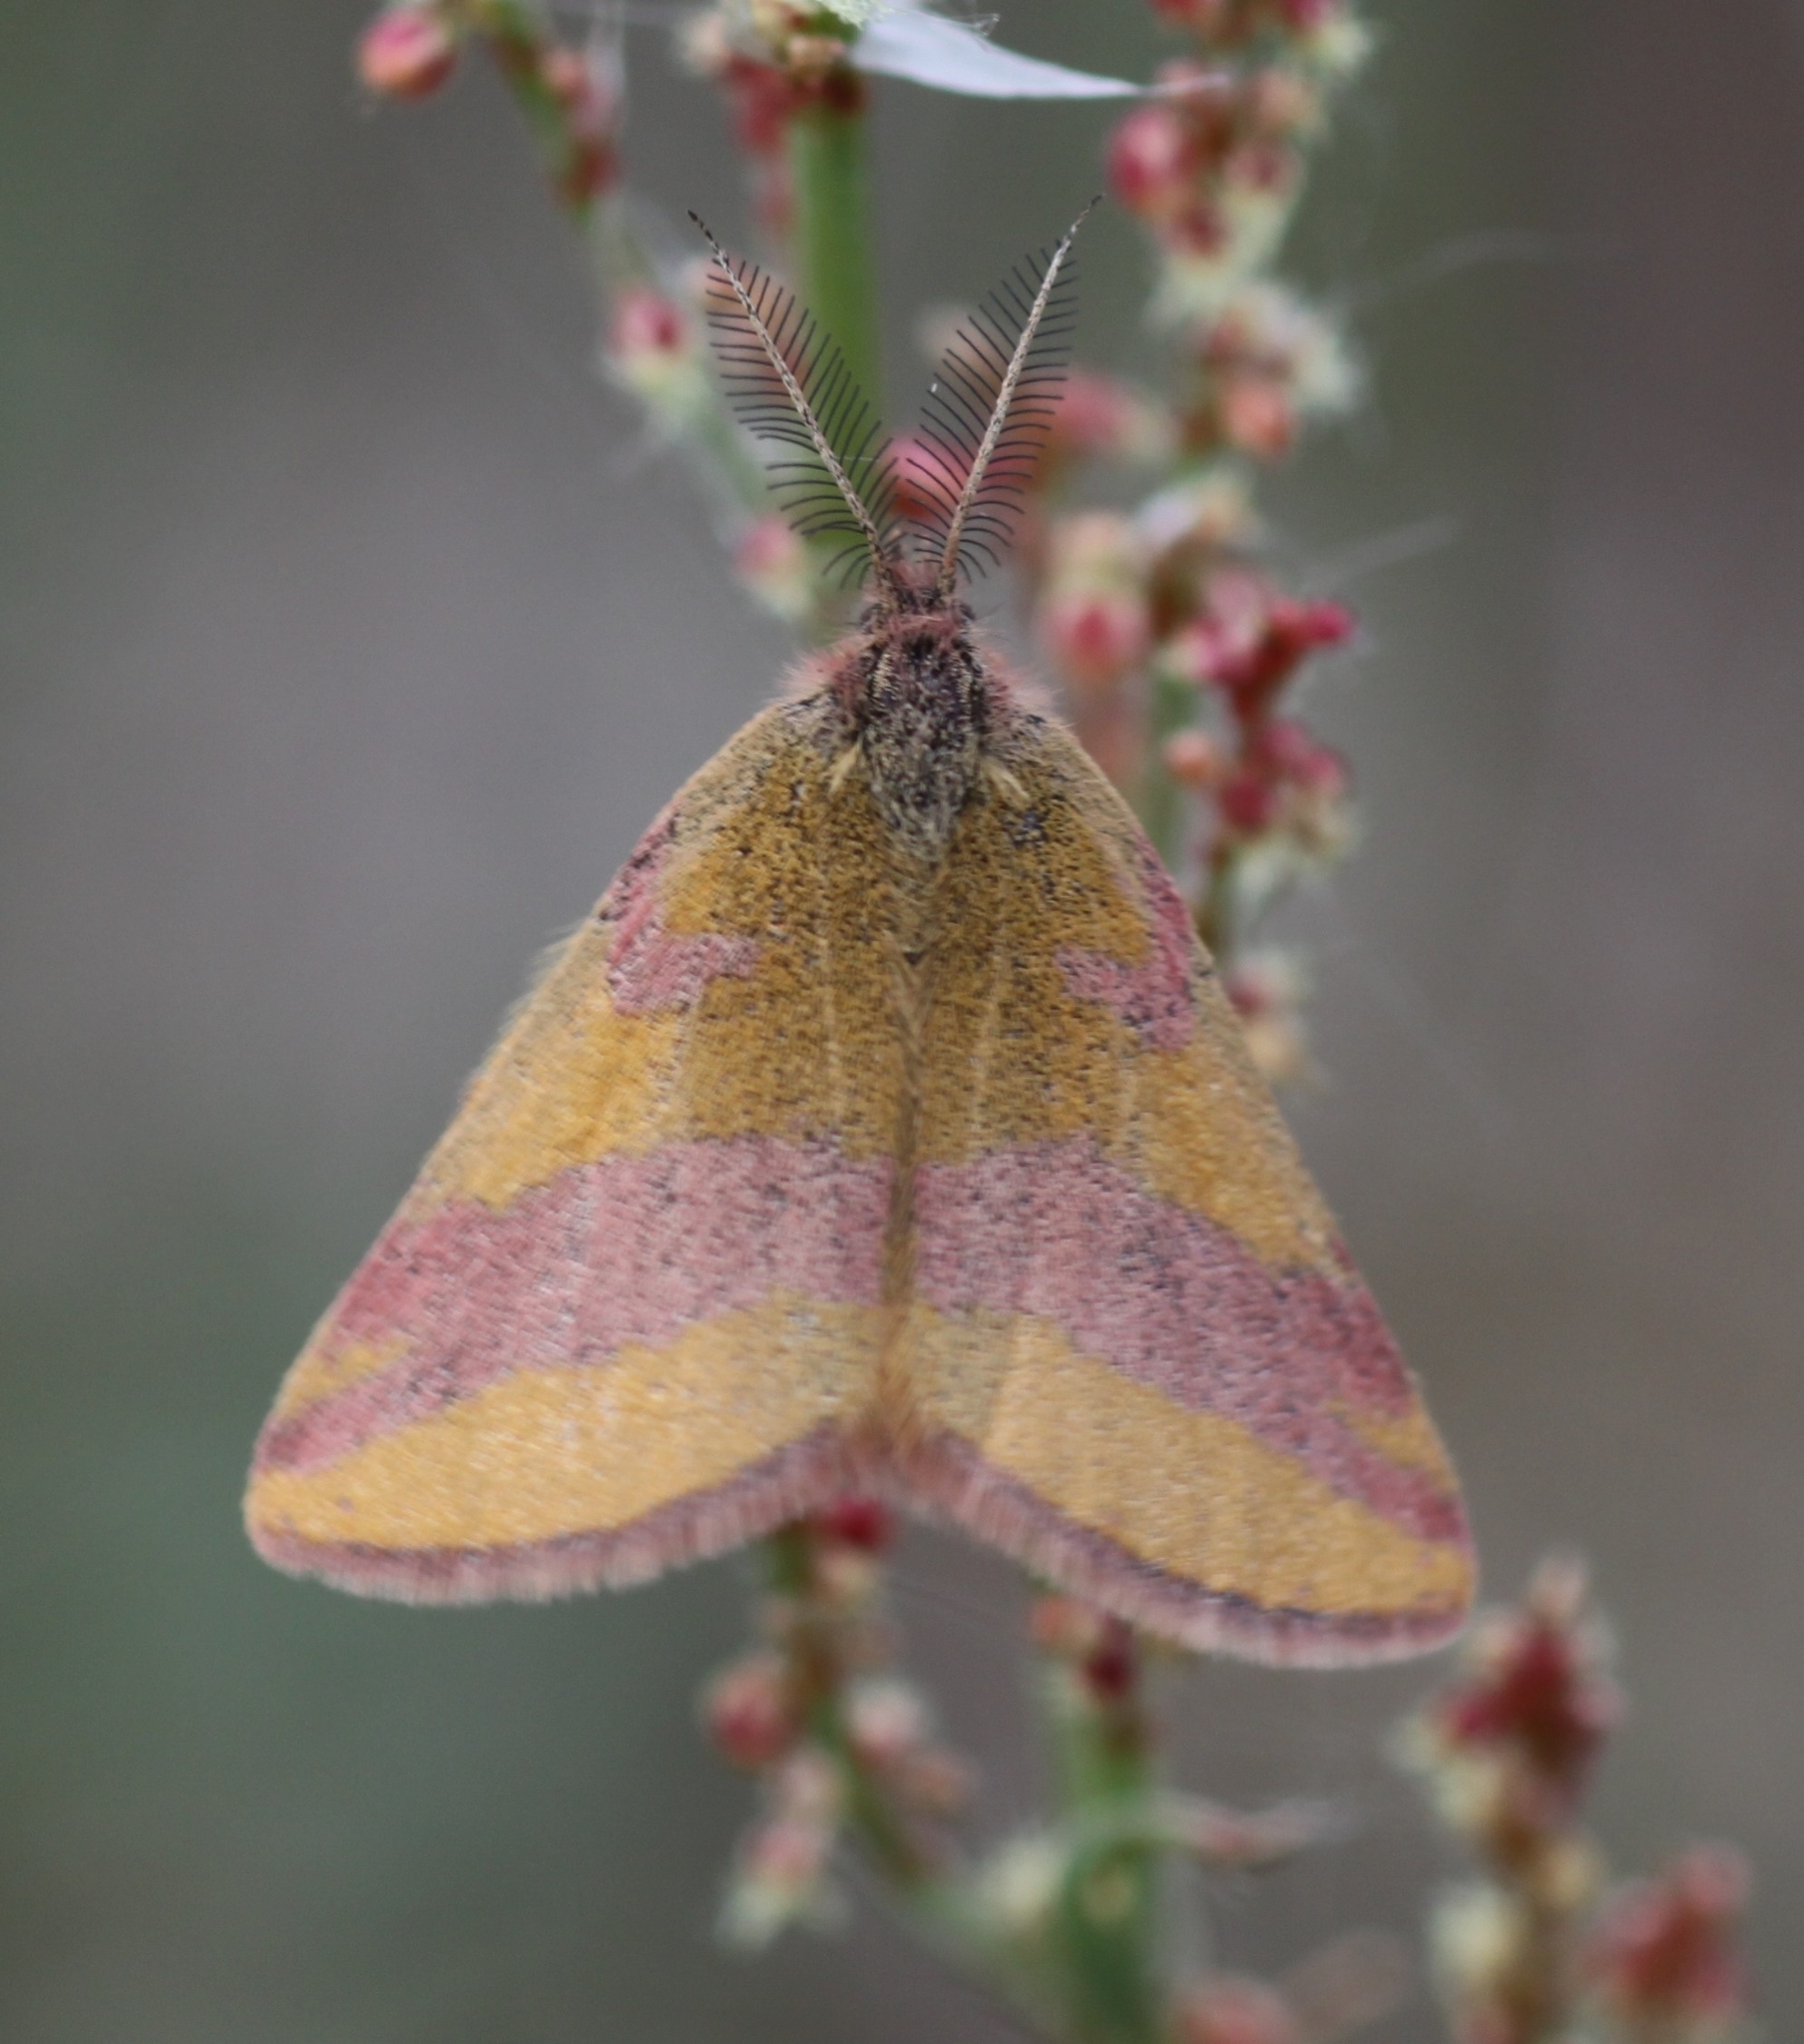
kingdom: Animalia
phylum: Arthropoda
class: Insecta
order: Lepidoptera
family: Geometridae
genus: Lythria
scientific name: Lythria cruentaria
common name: Purple-barred yellow
